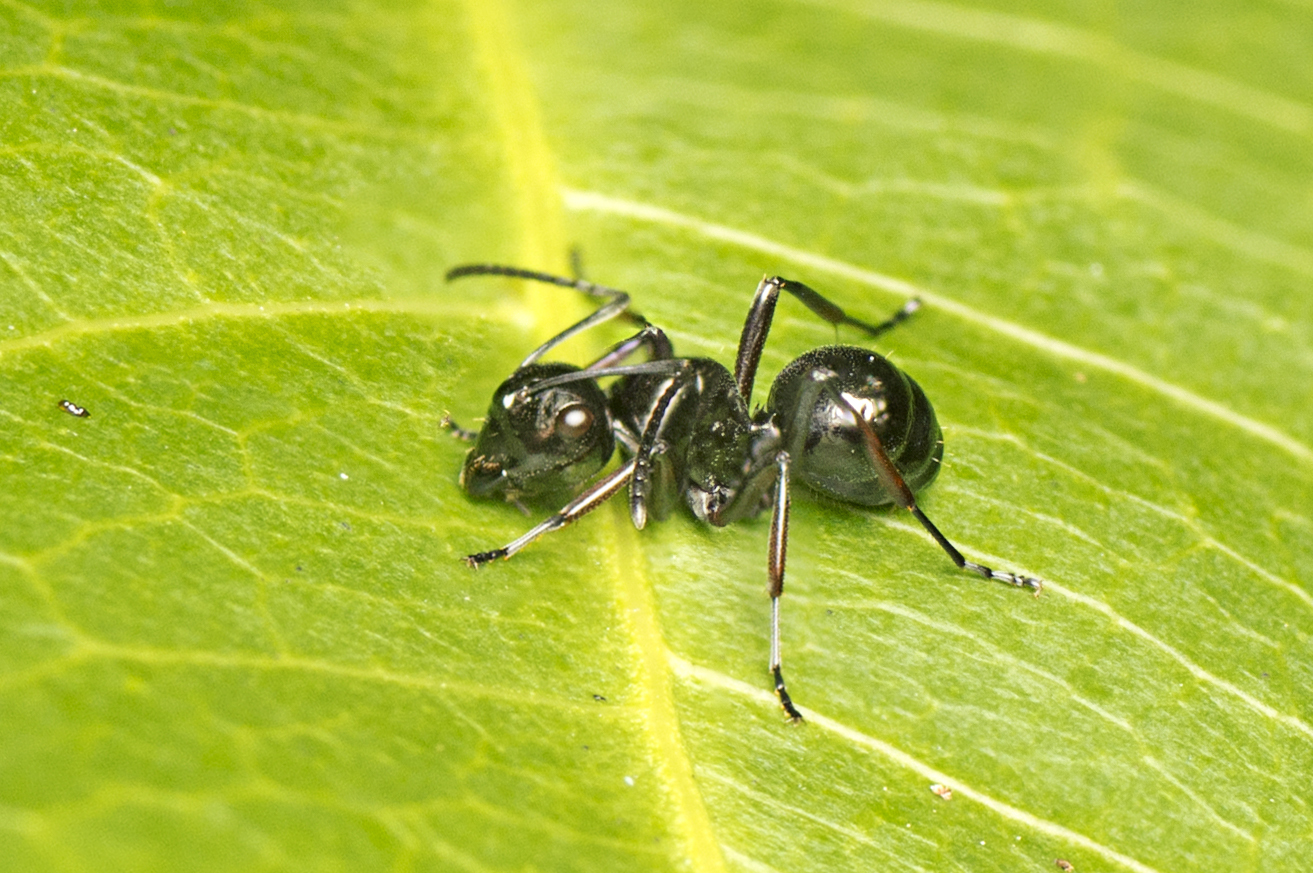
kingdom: Animalia
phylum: Arthropoda
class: Insecta
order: Hymenoptera
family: Formicidae
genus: Polyrhachis
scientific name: Polyrhachis pilosa
